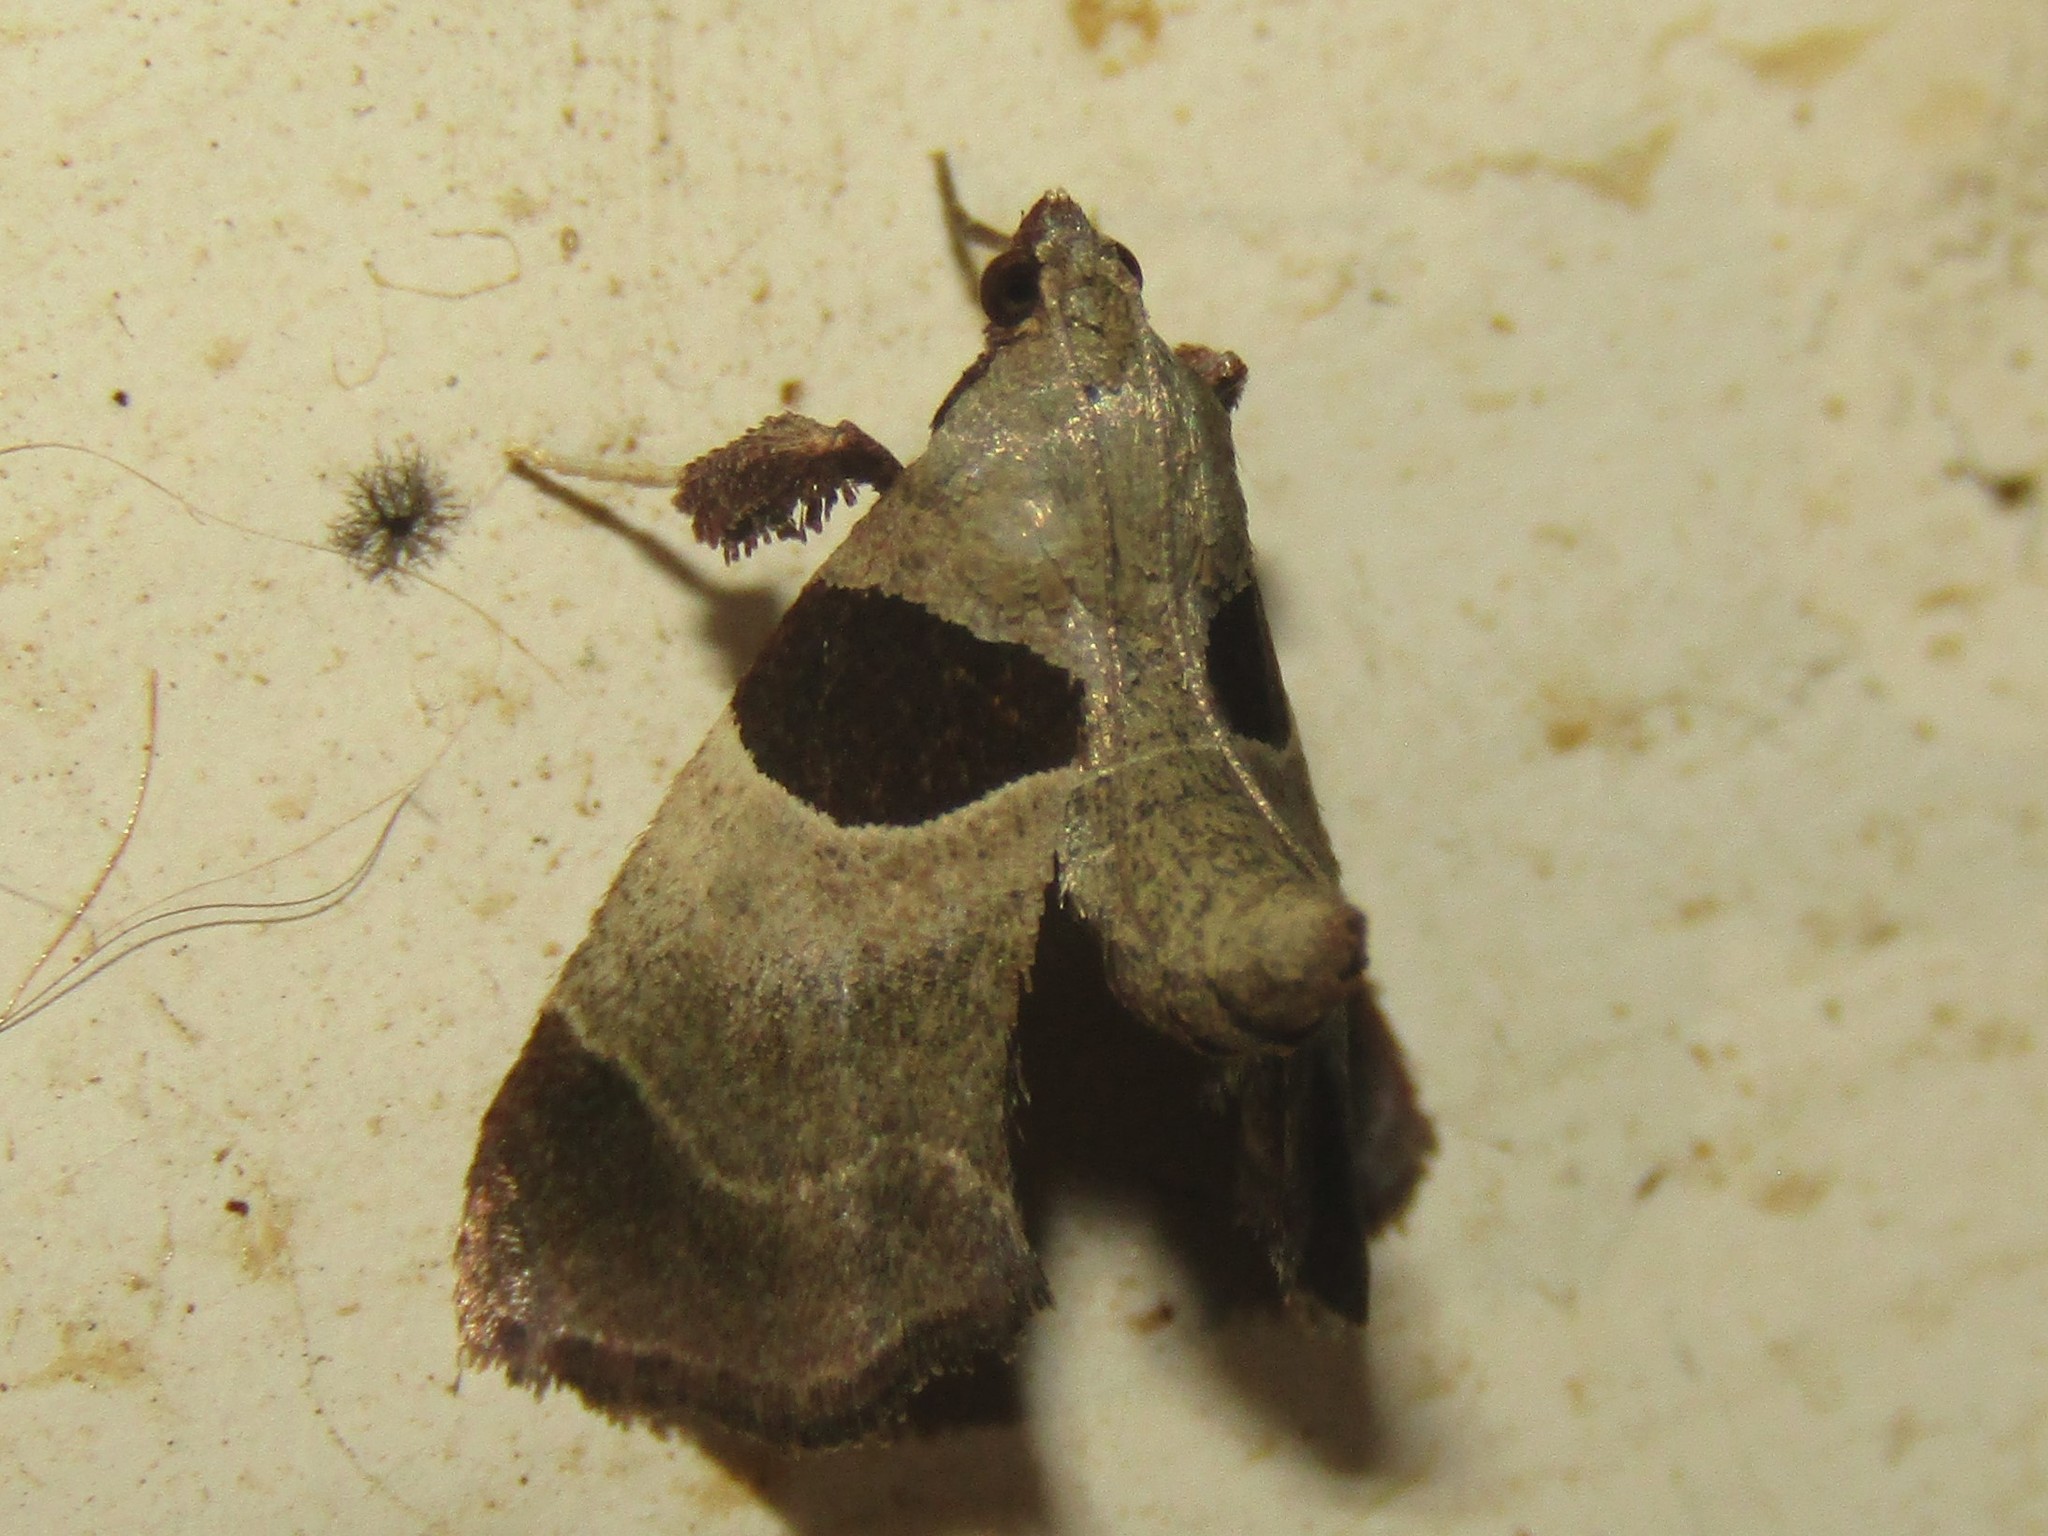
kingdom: Animalia
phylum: Arthropoda
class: Insecta
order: Lepidoptera
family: Pyralidae
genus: Tosale
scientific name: Tosale oviplagalis
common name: Dimorphic tosale moth
